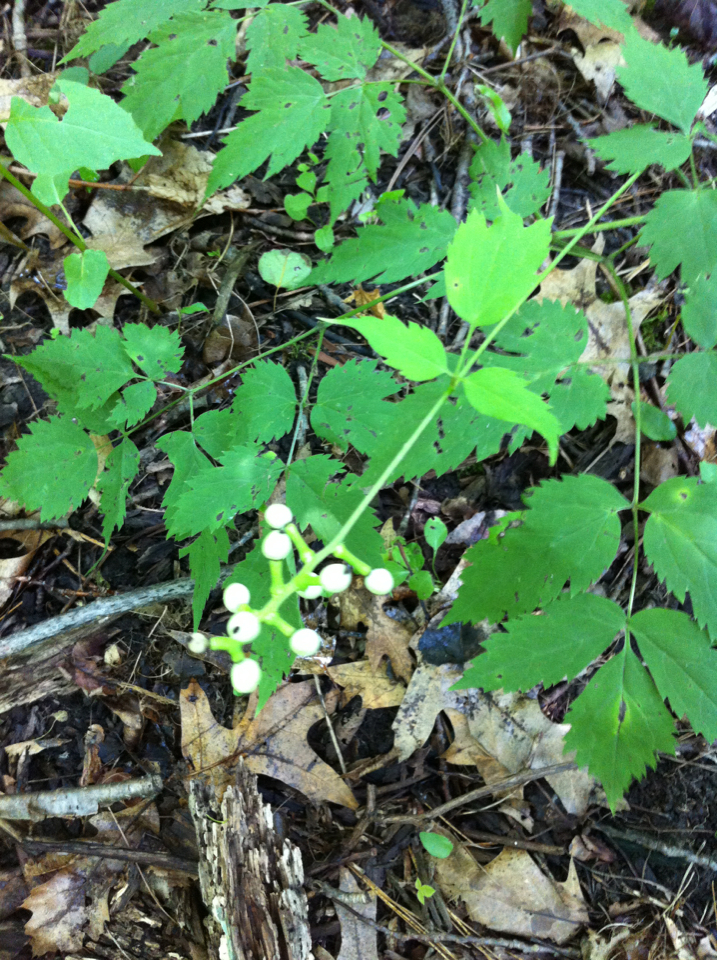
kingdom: Plantae
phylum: Tracheophyta
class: Magnoliopsida
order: Ranunculales
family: Ranunculaceae
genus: Actaea
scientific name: Actaea pachypoda
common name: Doll's-eyes
